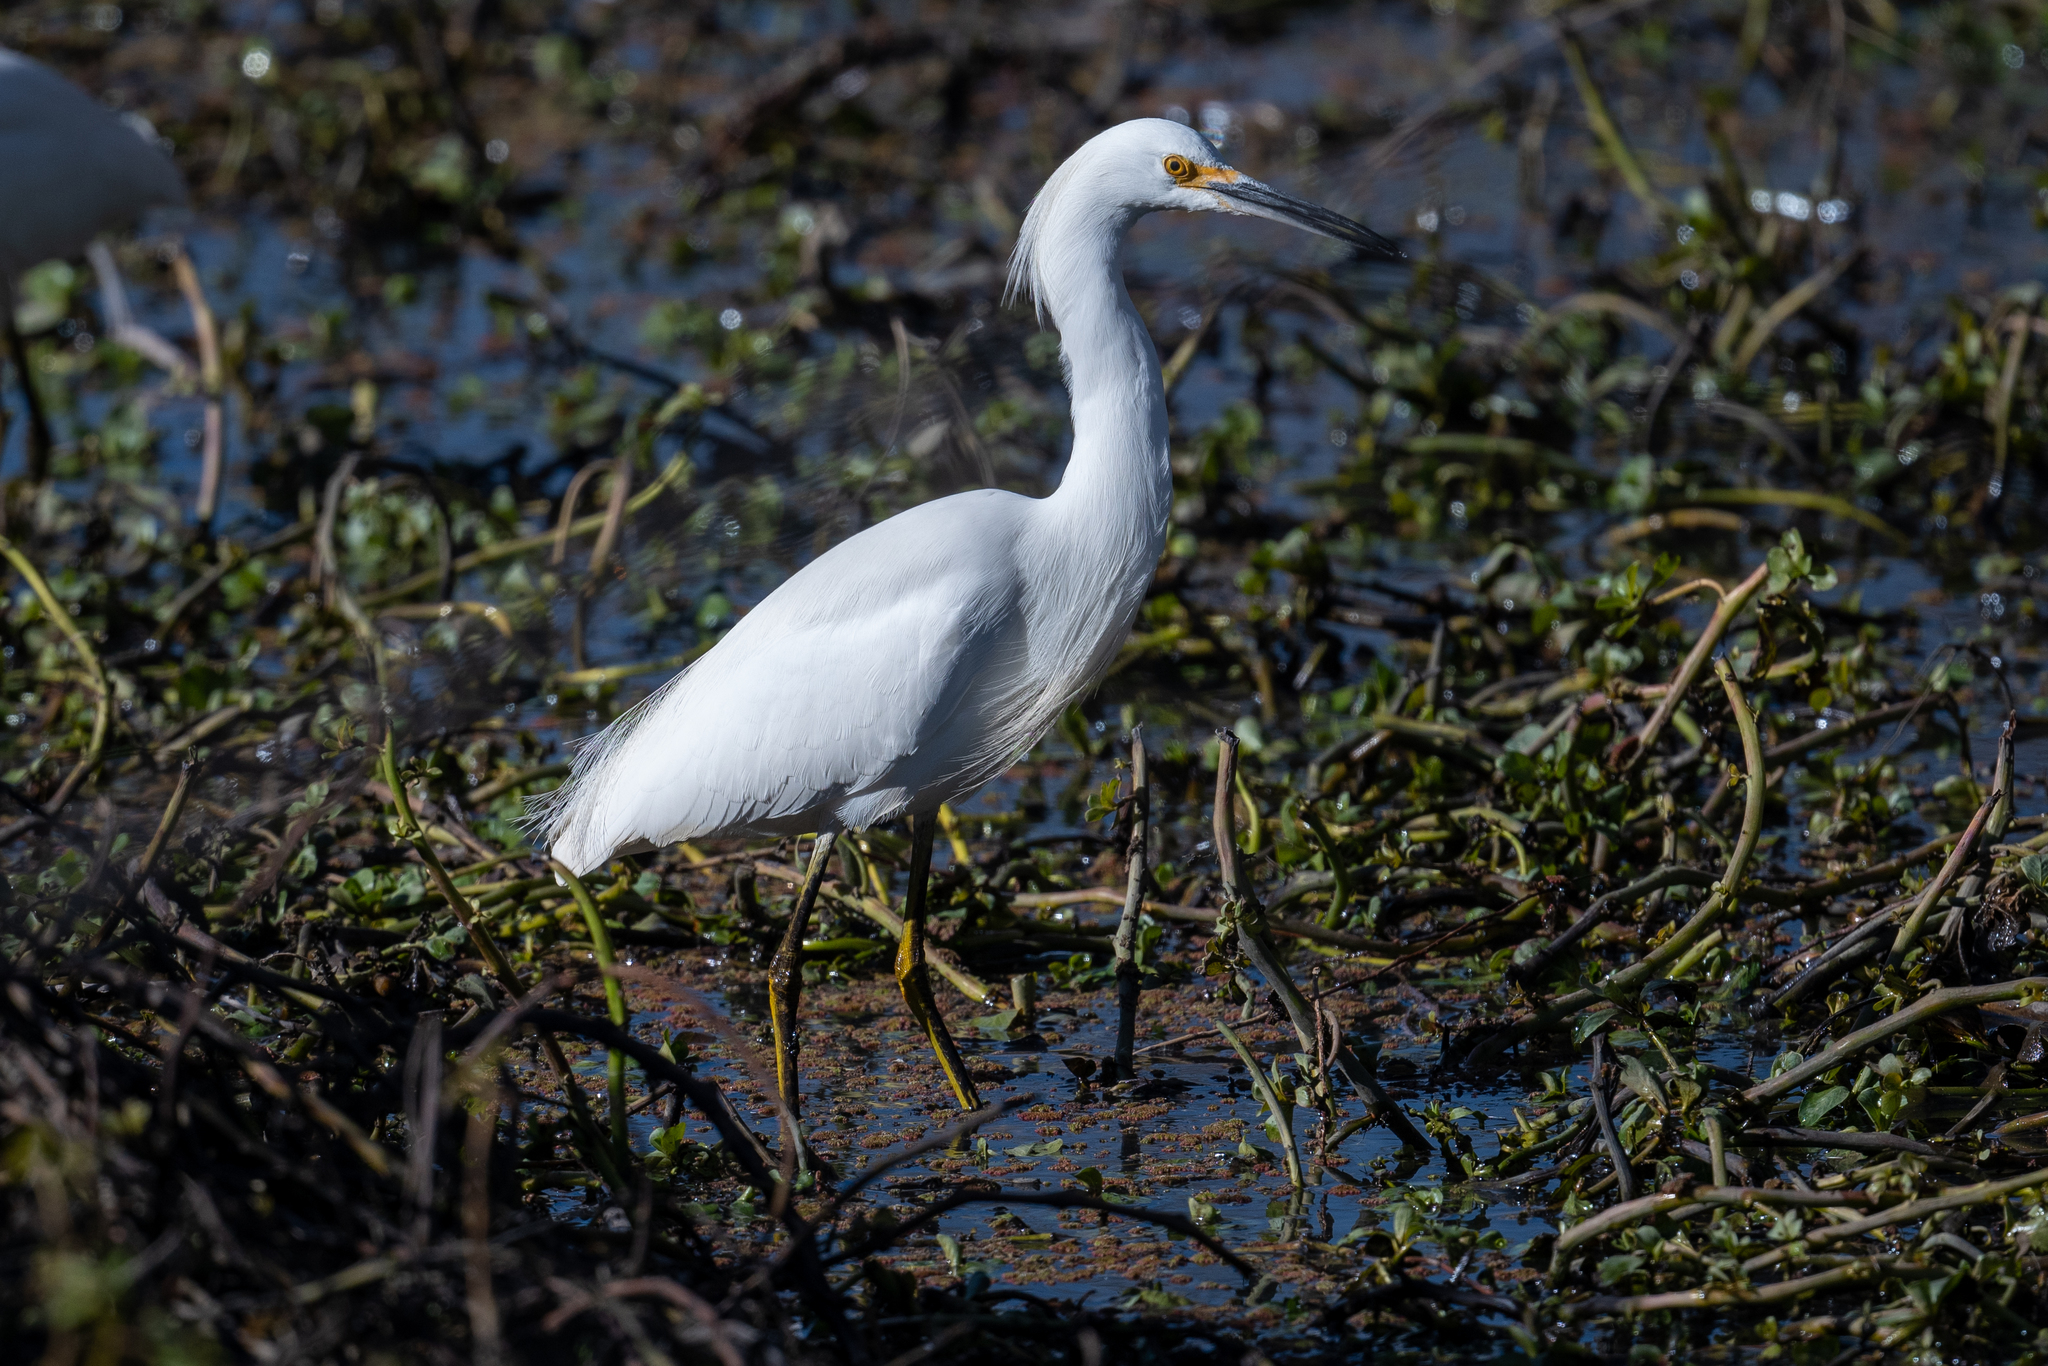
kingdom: Animalia
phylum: Chordata
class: Aves
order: Pelecaniformes
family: Ardeidae
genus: Egretta
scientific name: Egretta thula
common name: Snowy egret
